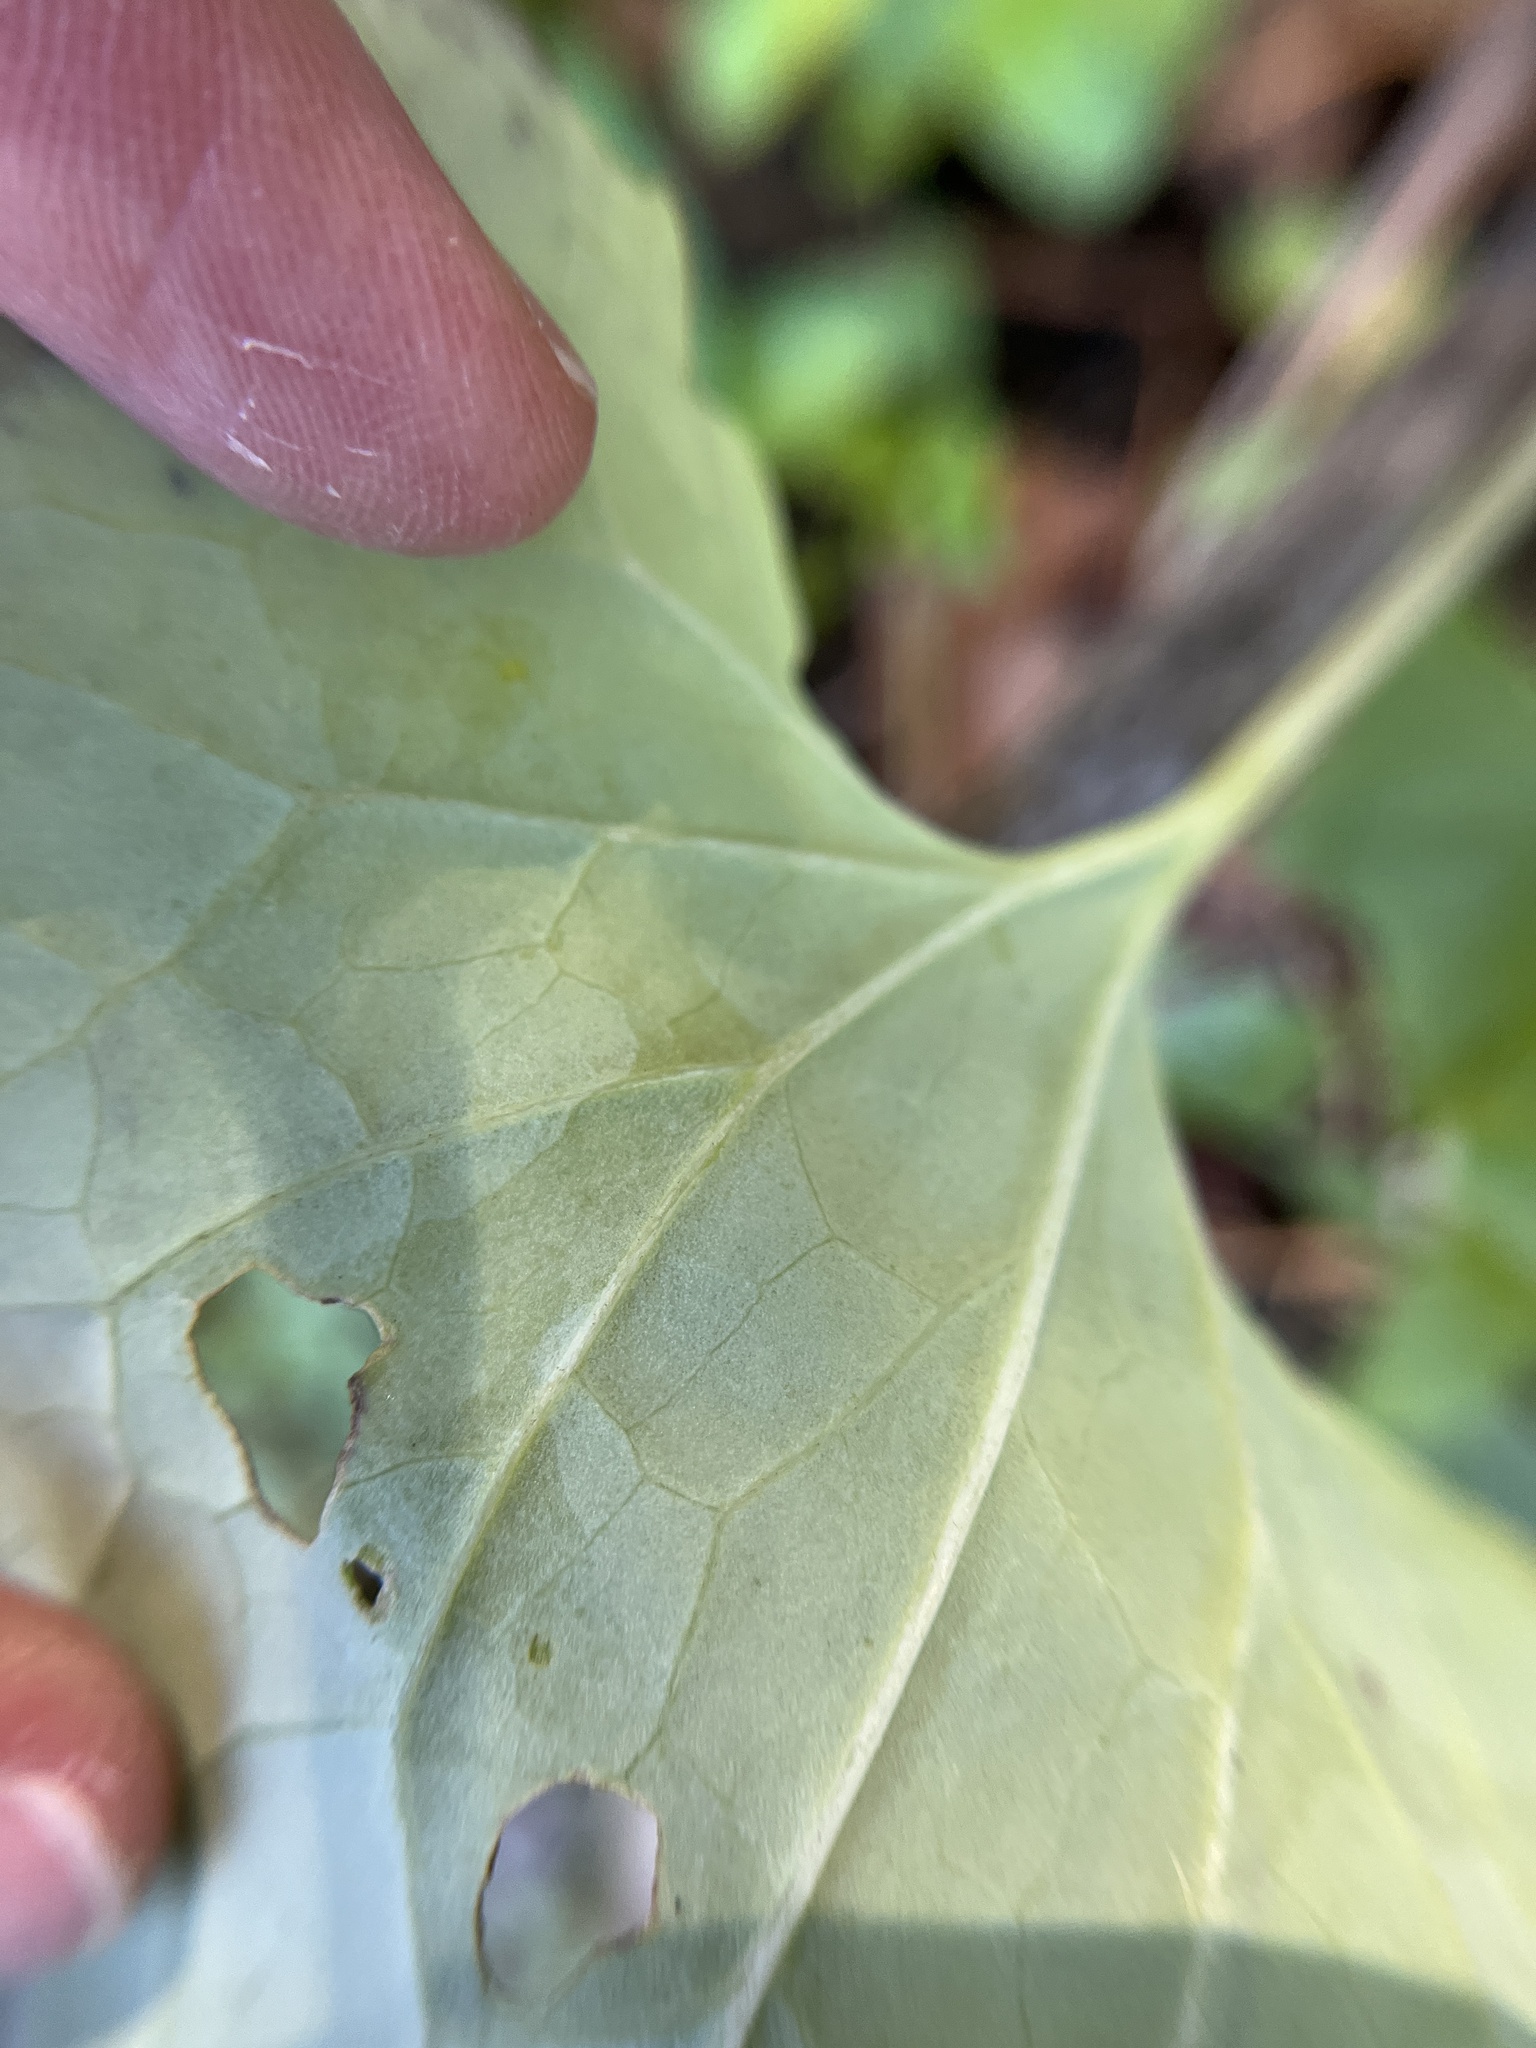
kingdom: Animalia
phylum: Arthropoda
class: Insecta
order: Lepidoptera
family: Gracillariidae
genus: Phyllocnistis
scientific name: Phyllocnistis insignis
